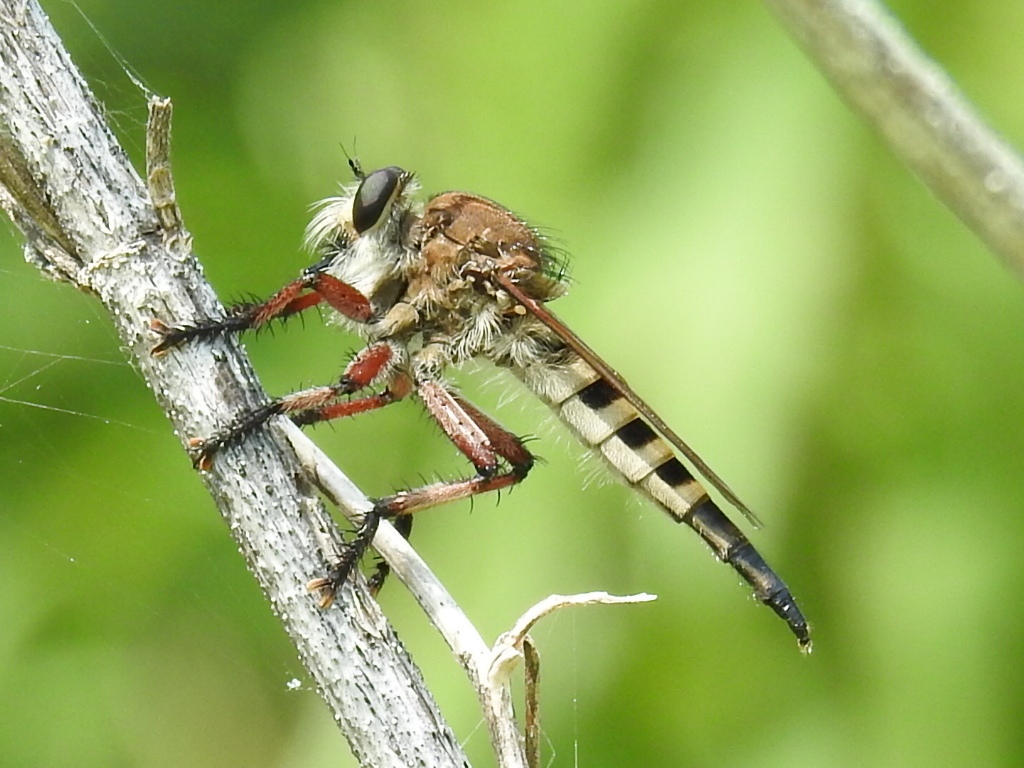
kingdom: Animalia
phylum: Arthropoda
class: Insecta
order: Diptera
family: Asilidae
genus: Promachus
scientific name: Promachus hinei
